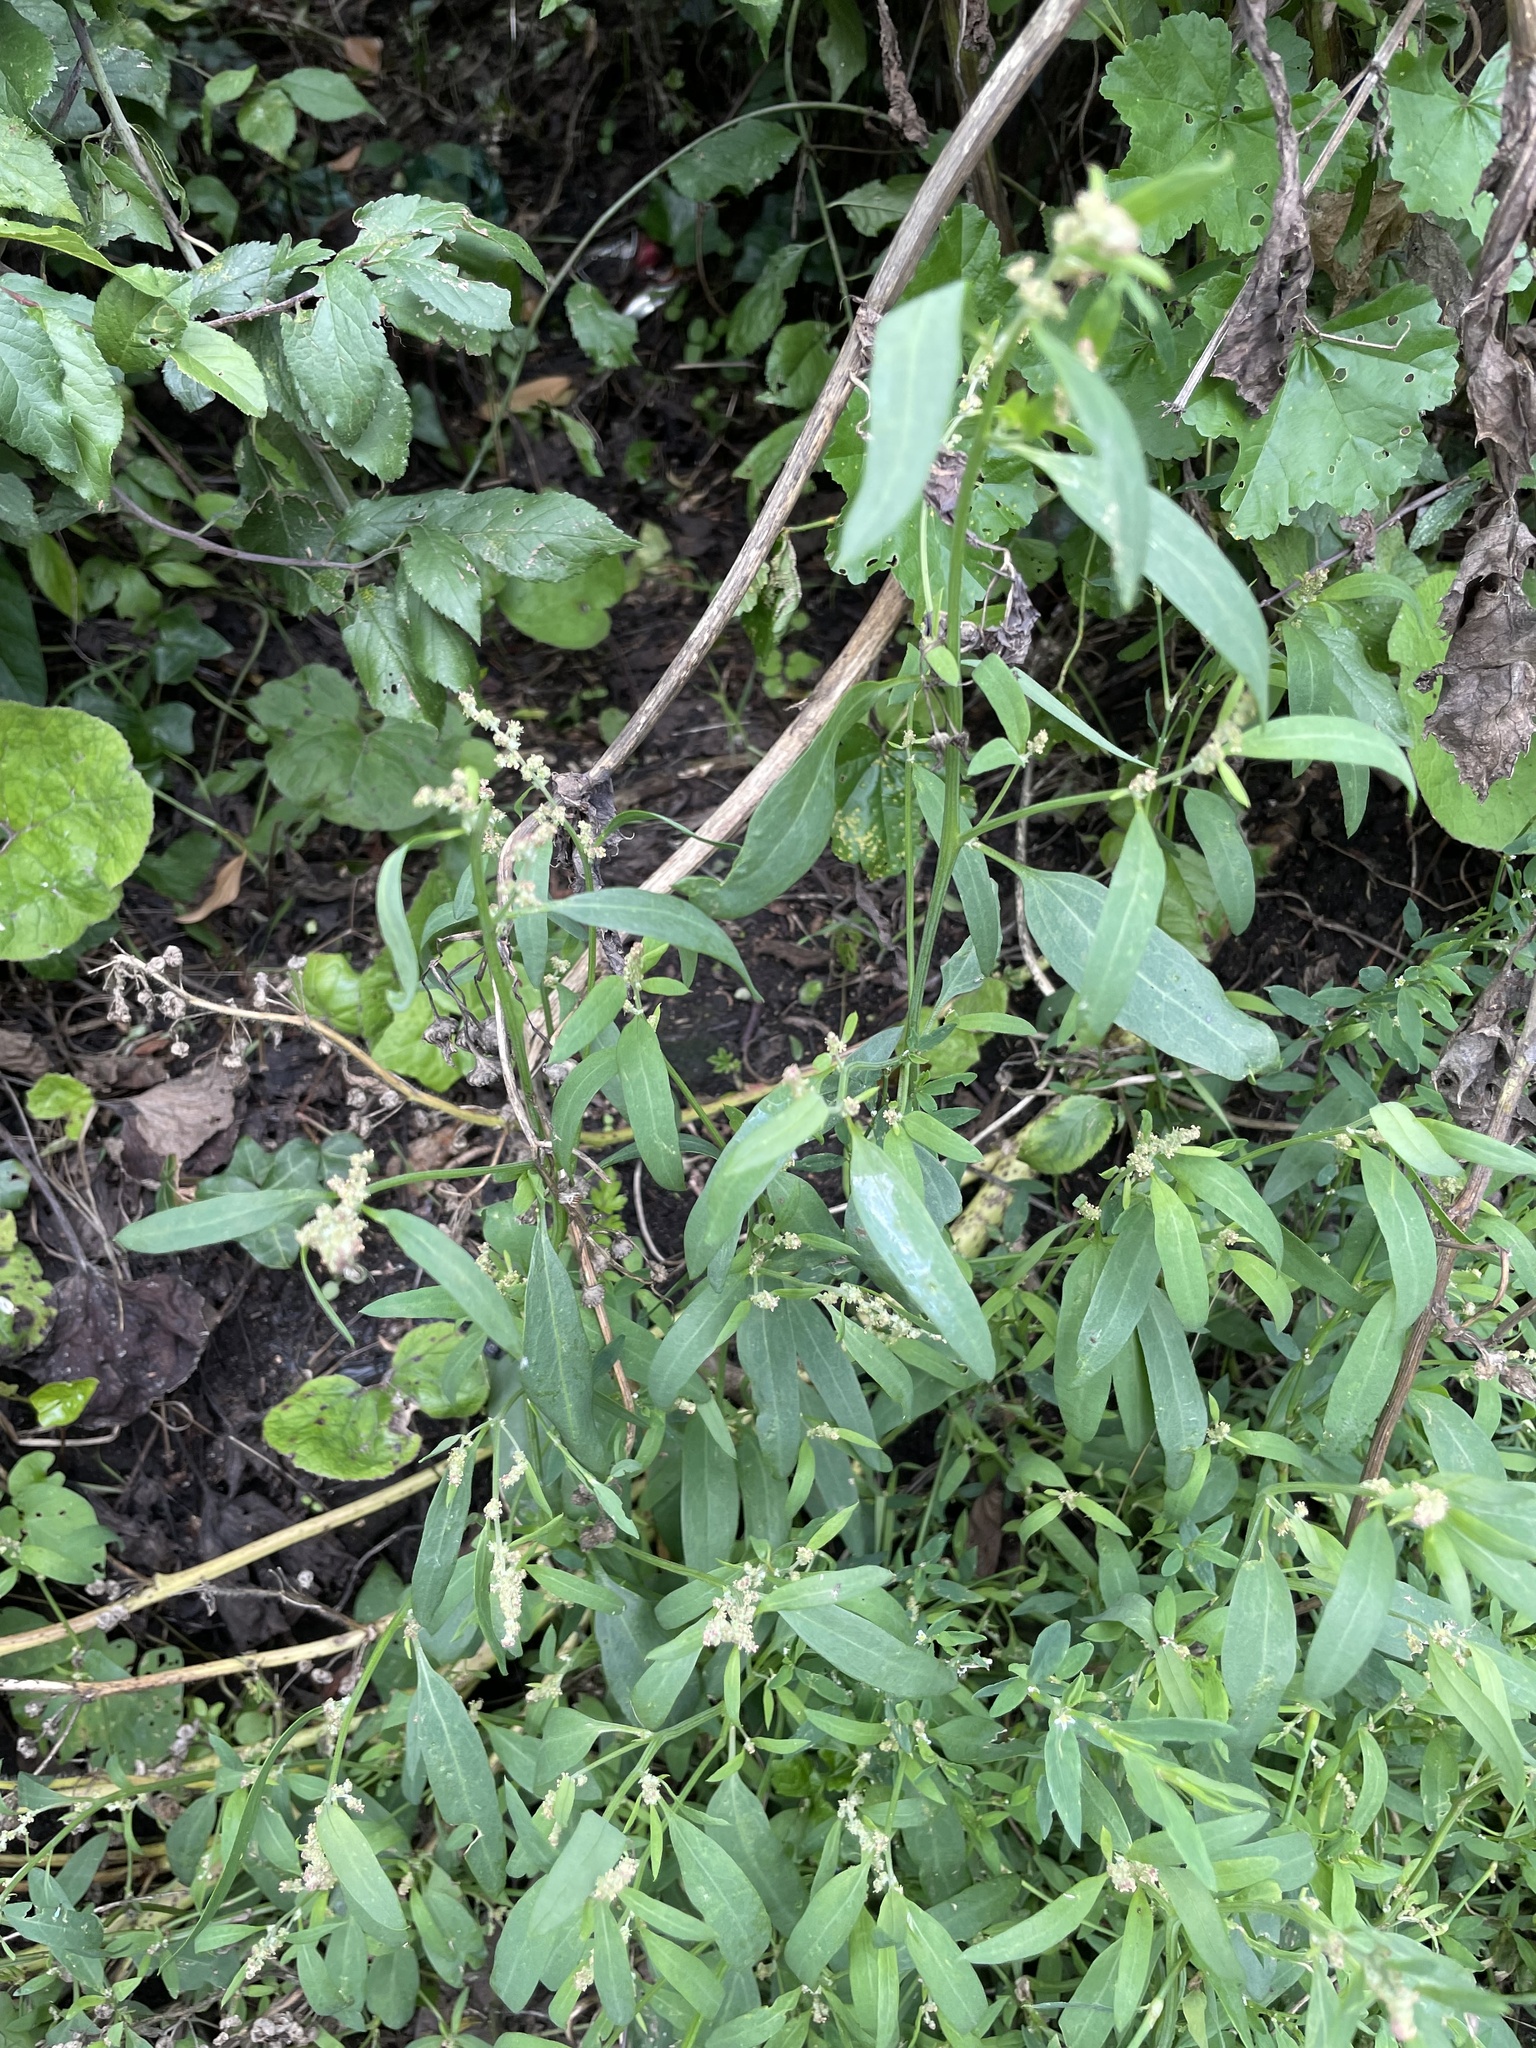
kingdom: Plantae
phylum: Tracheophyta
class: Magnoliopsida
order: Caryophyllales
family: Amaranthaceae
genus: Atriplex
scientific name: Atriplex patula
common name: Common orache
